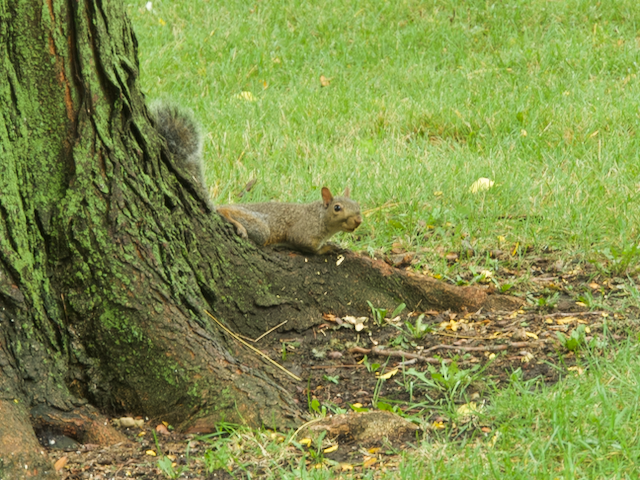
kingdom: Animalia
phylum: Chordata
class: Mammalia
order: Rodentia
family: Sciuridae
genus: Sciurus
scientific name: Sciurus carolinensis
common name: Eastern gray squirrel
